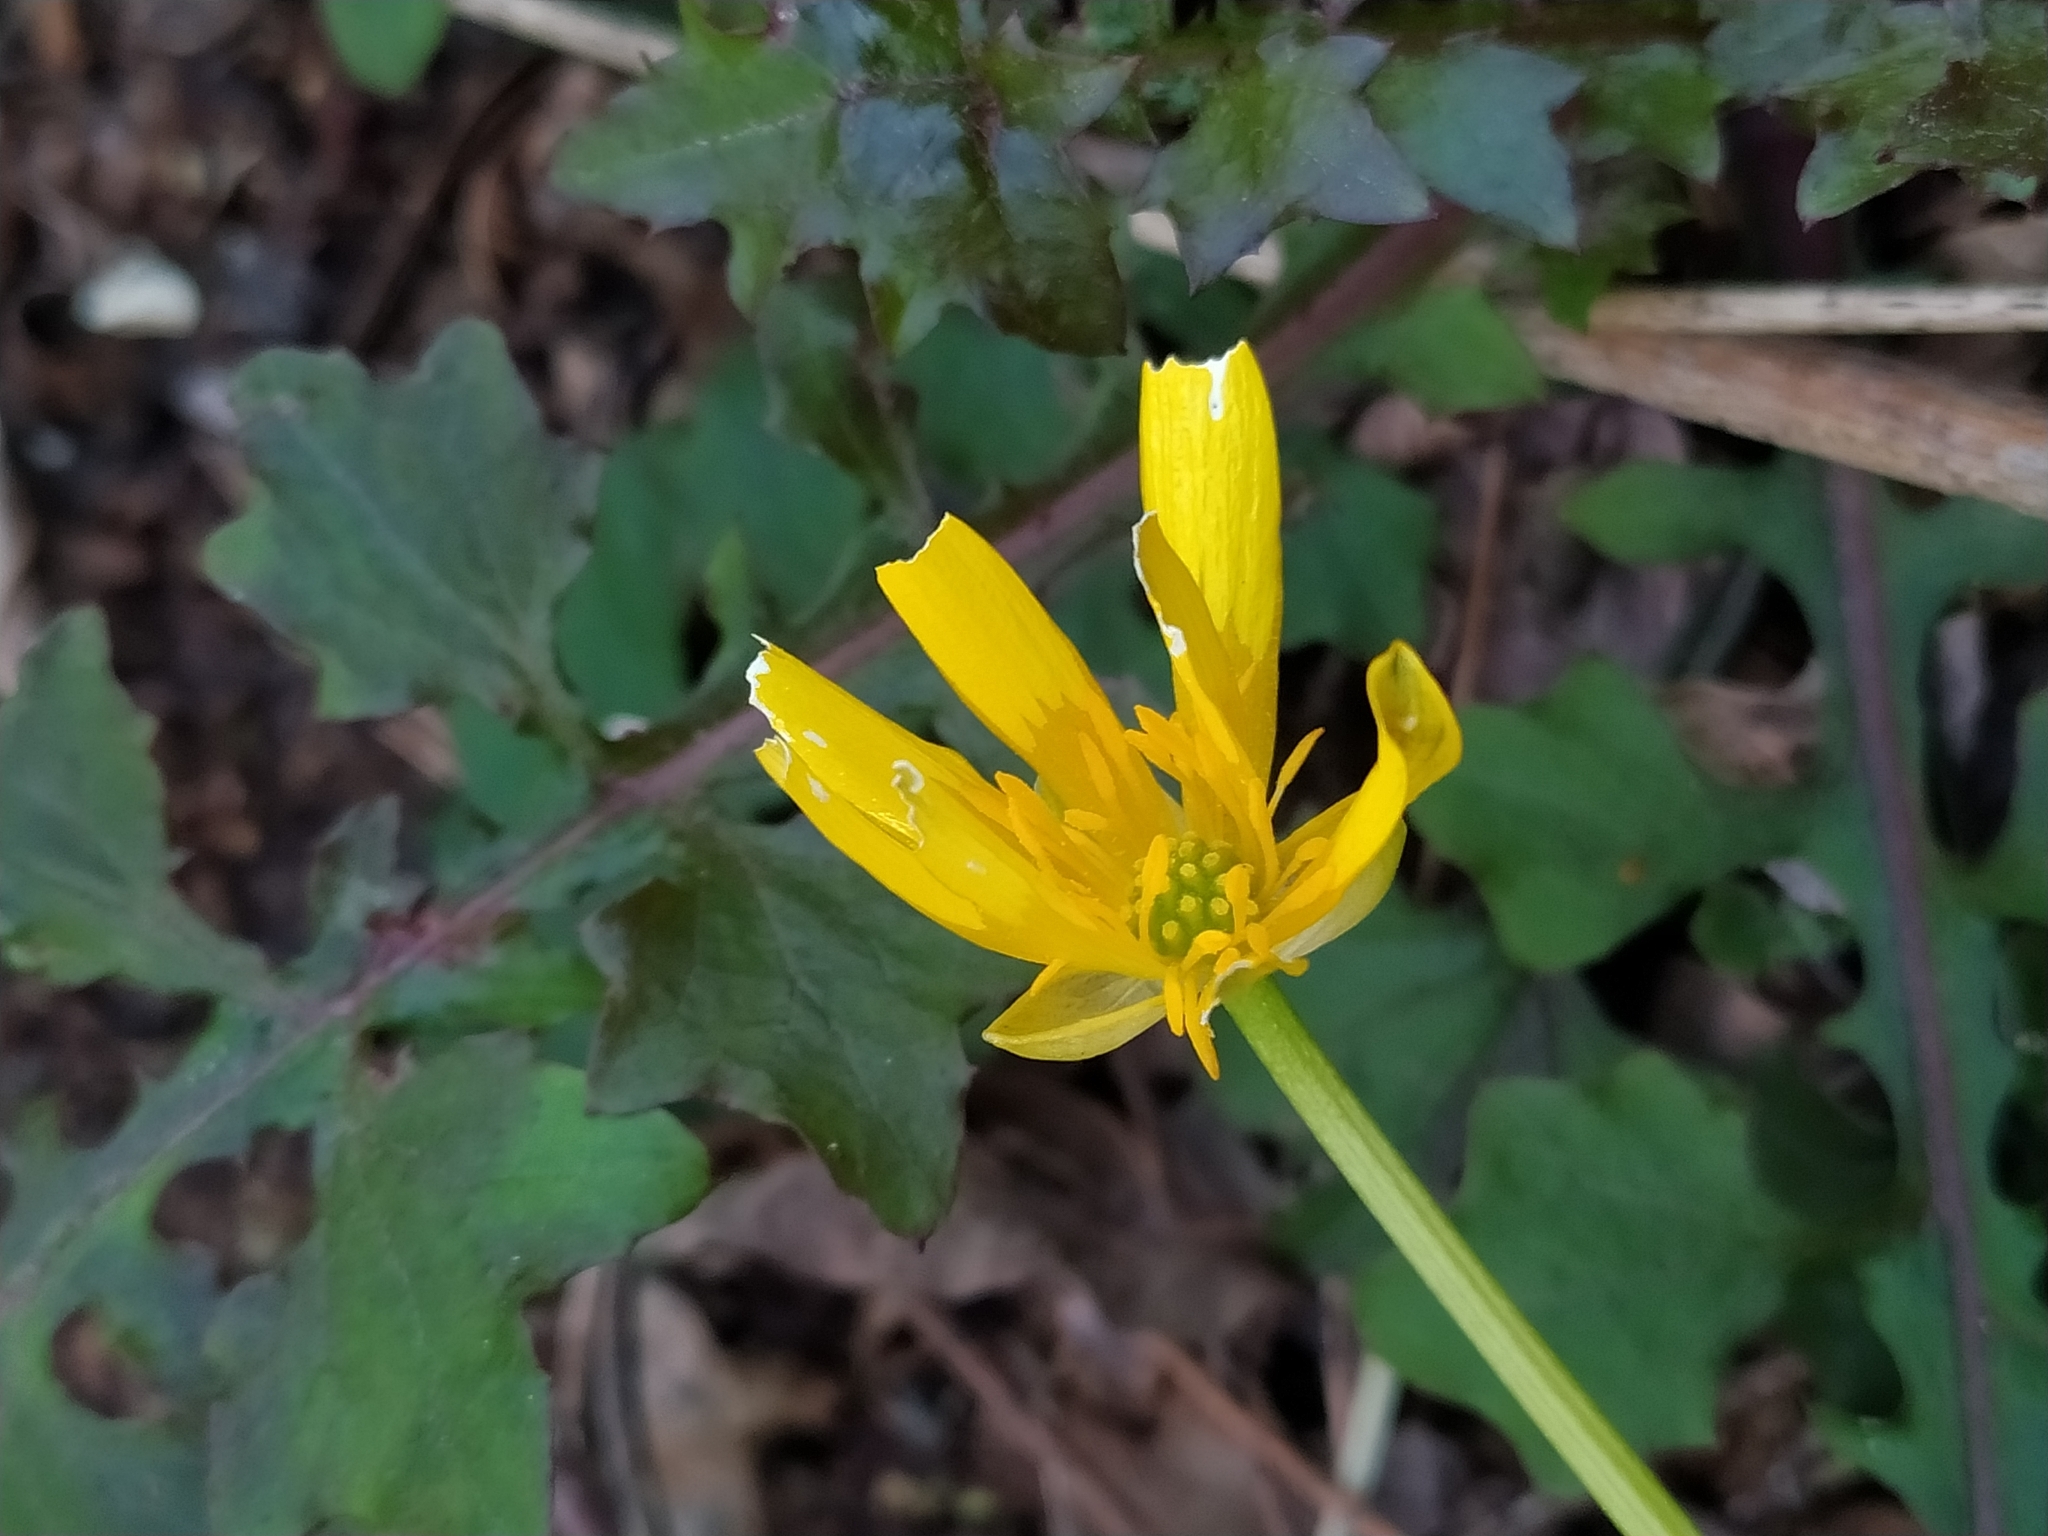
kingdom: Plantae
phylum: Tracheophyta
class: Magnoliopsida
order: Ranunculales
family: Ranunculaceae
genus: Ficaria
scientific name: Ficaria verna
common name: Lesser celandine
